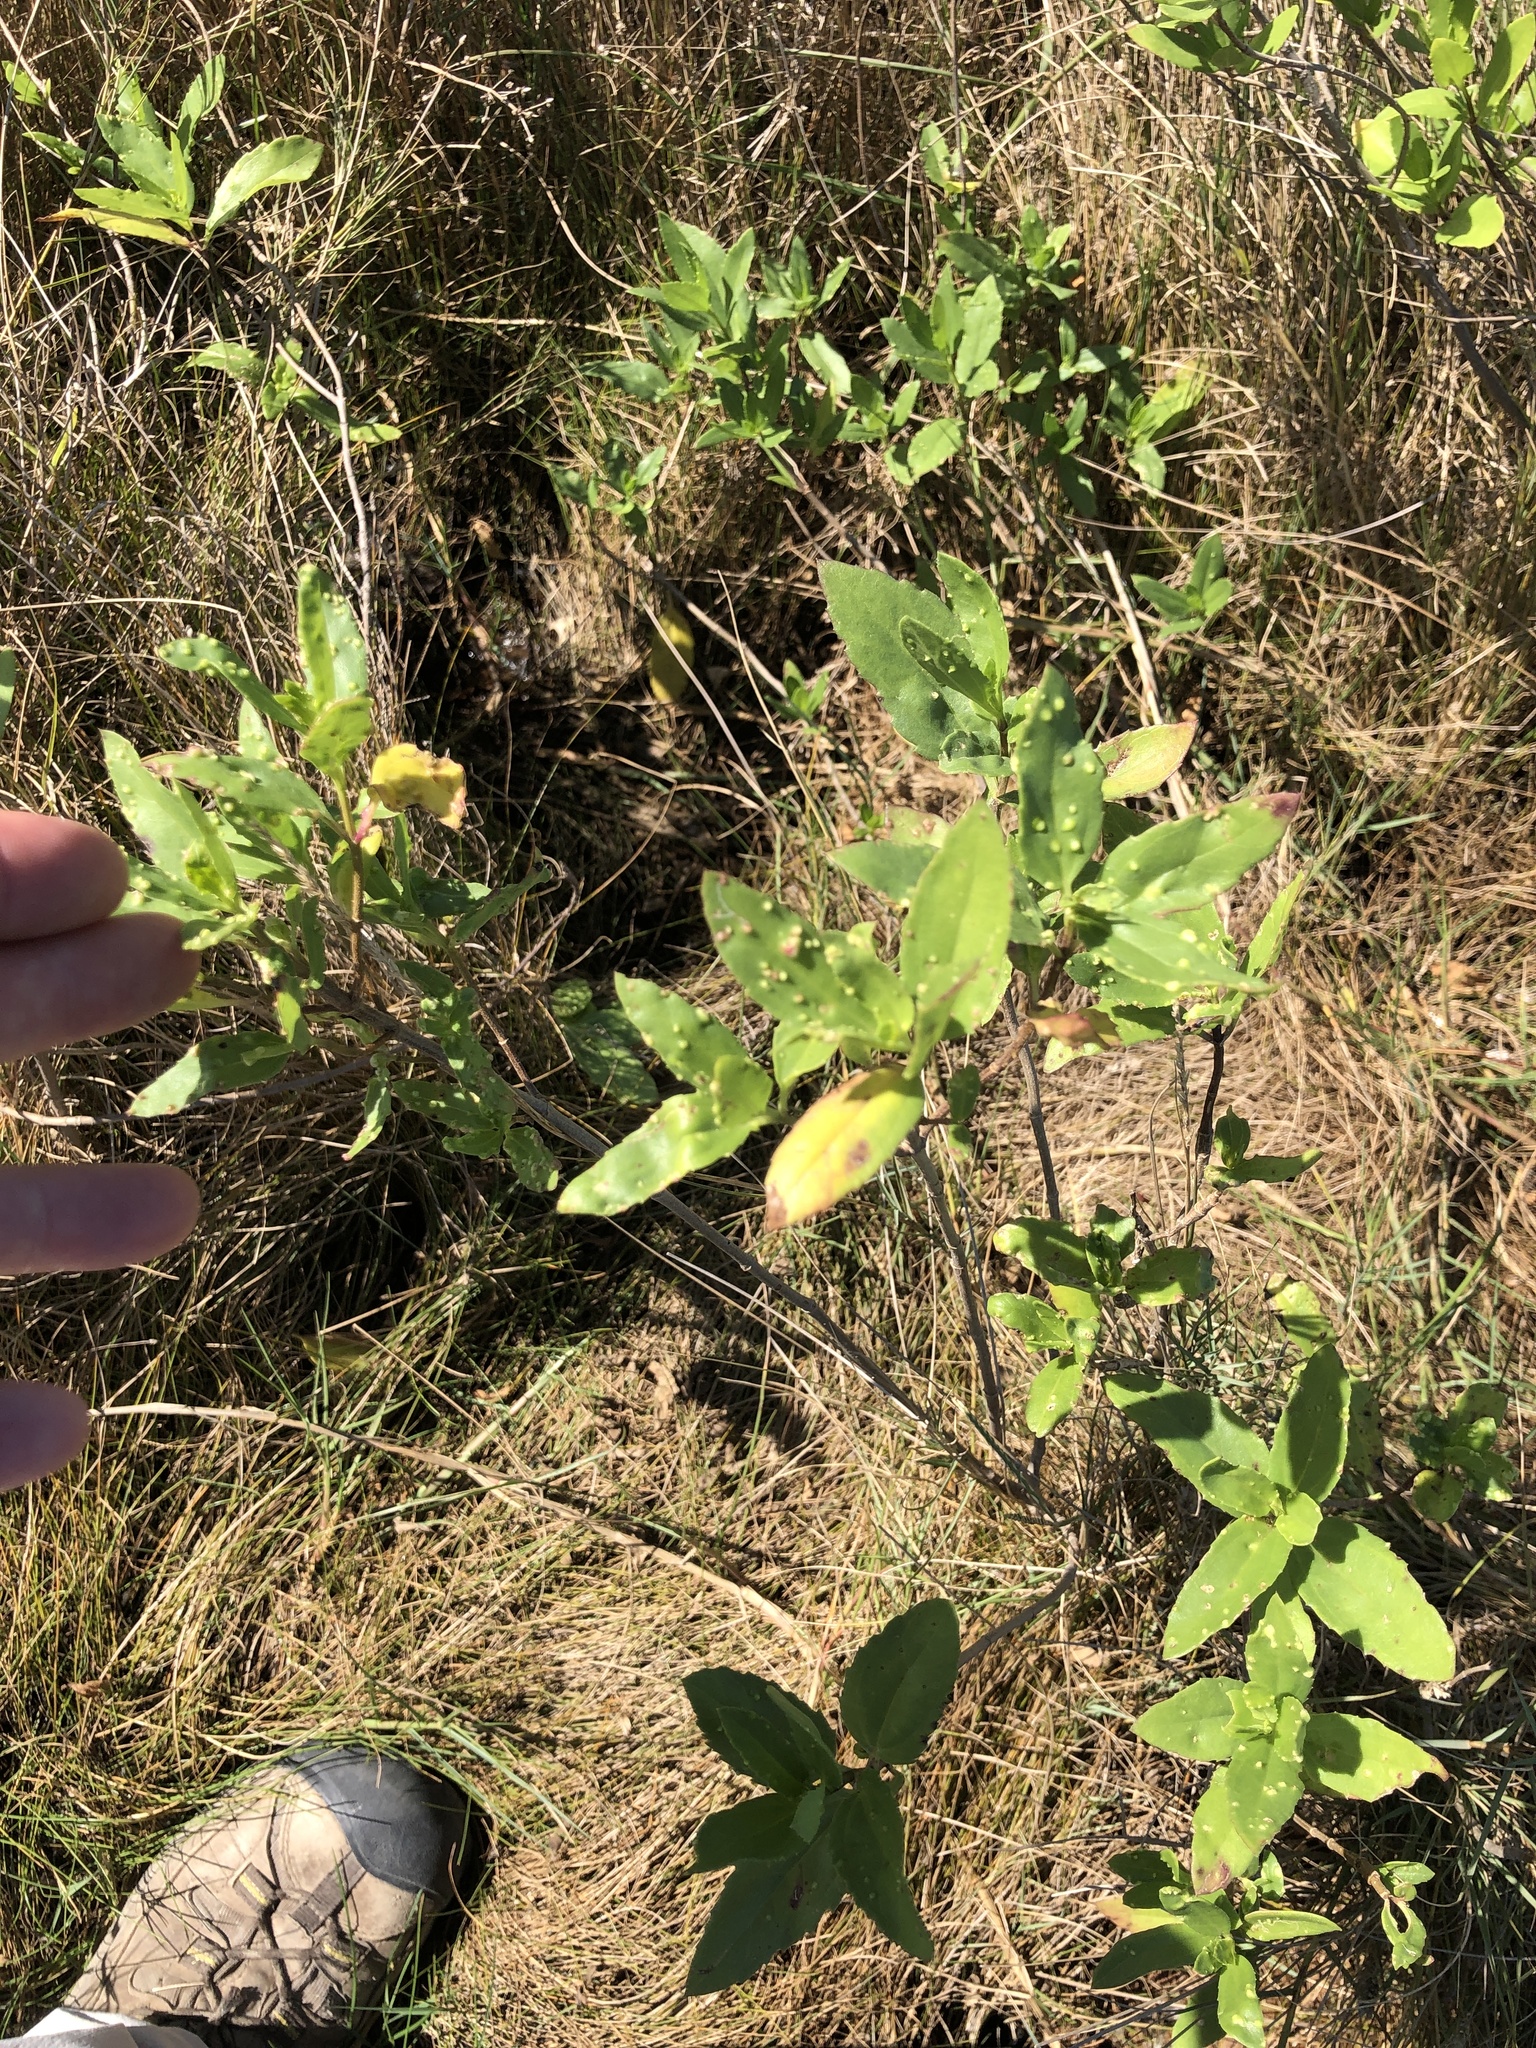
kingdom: Plantae
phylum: Tracheophyta
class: Magnoliopsida
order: Asterales
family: Asteraceae
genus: Iva
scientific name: Iva frutescens
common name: Big-leaved marsh-elder
